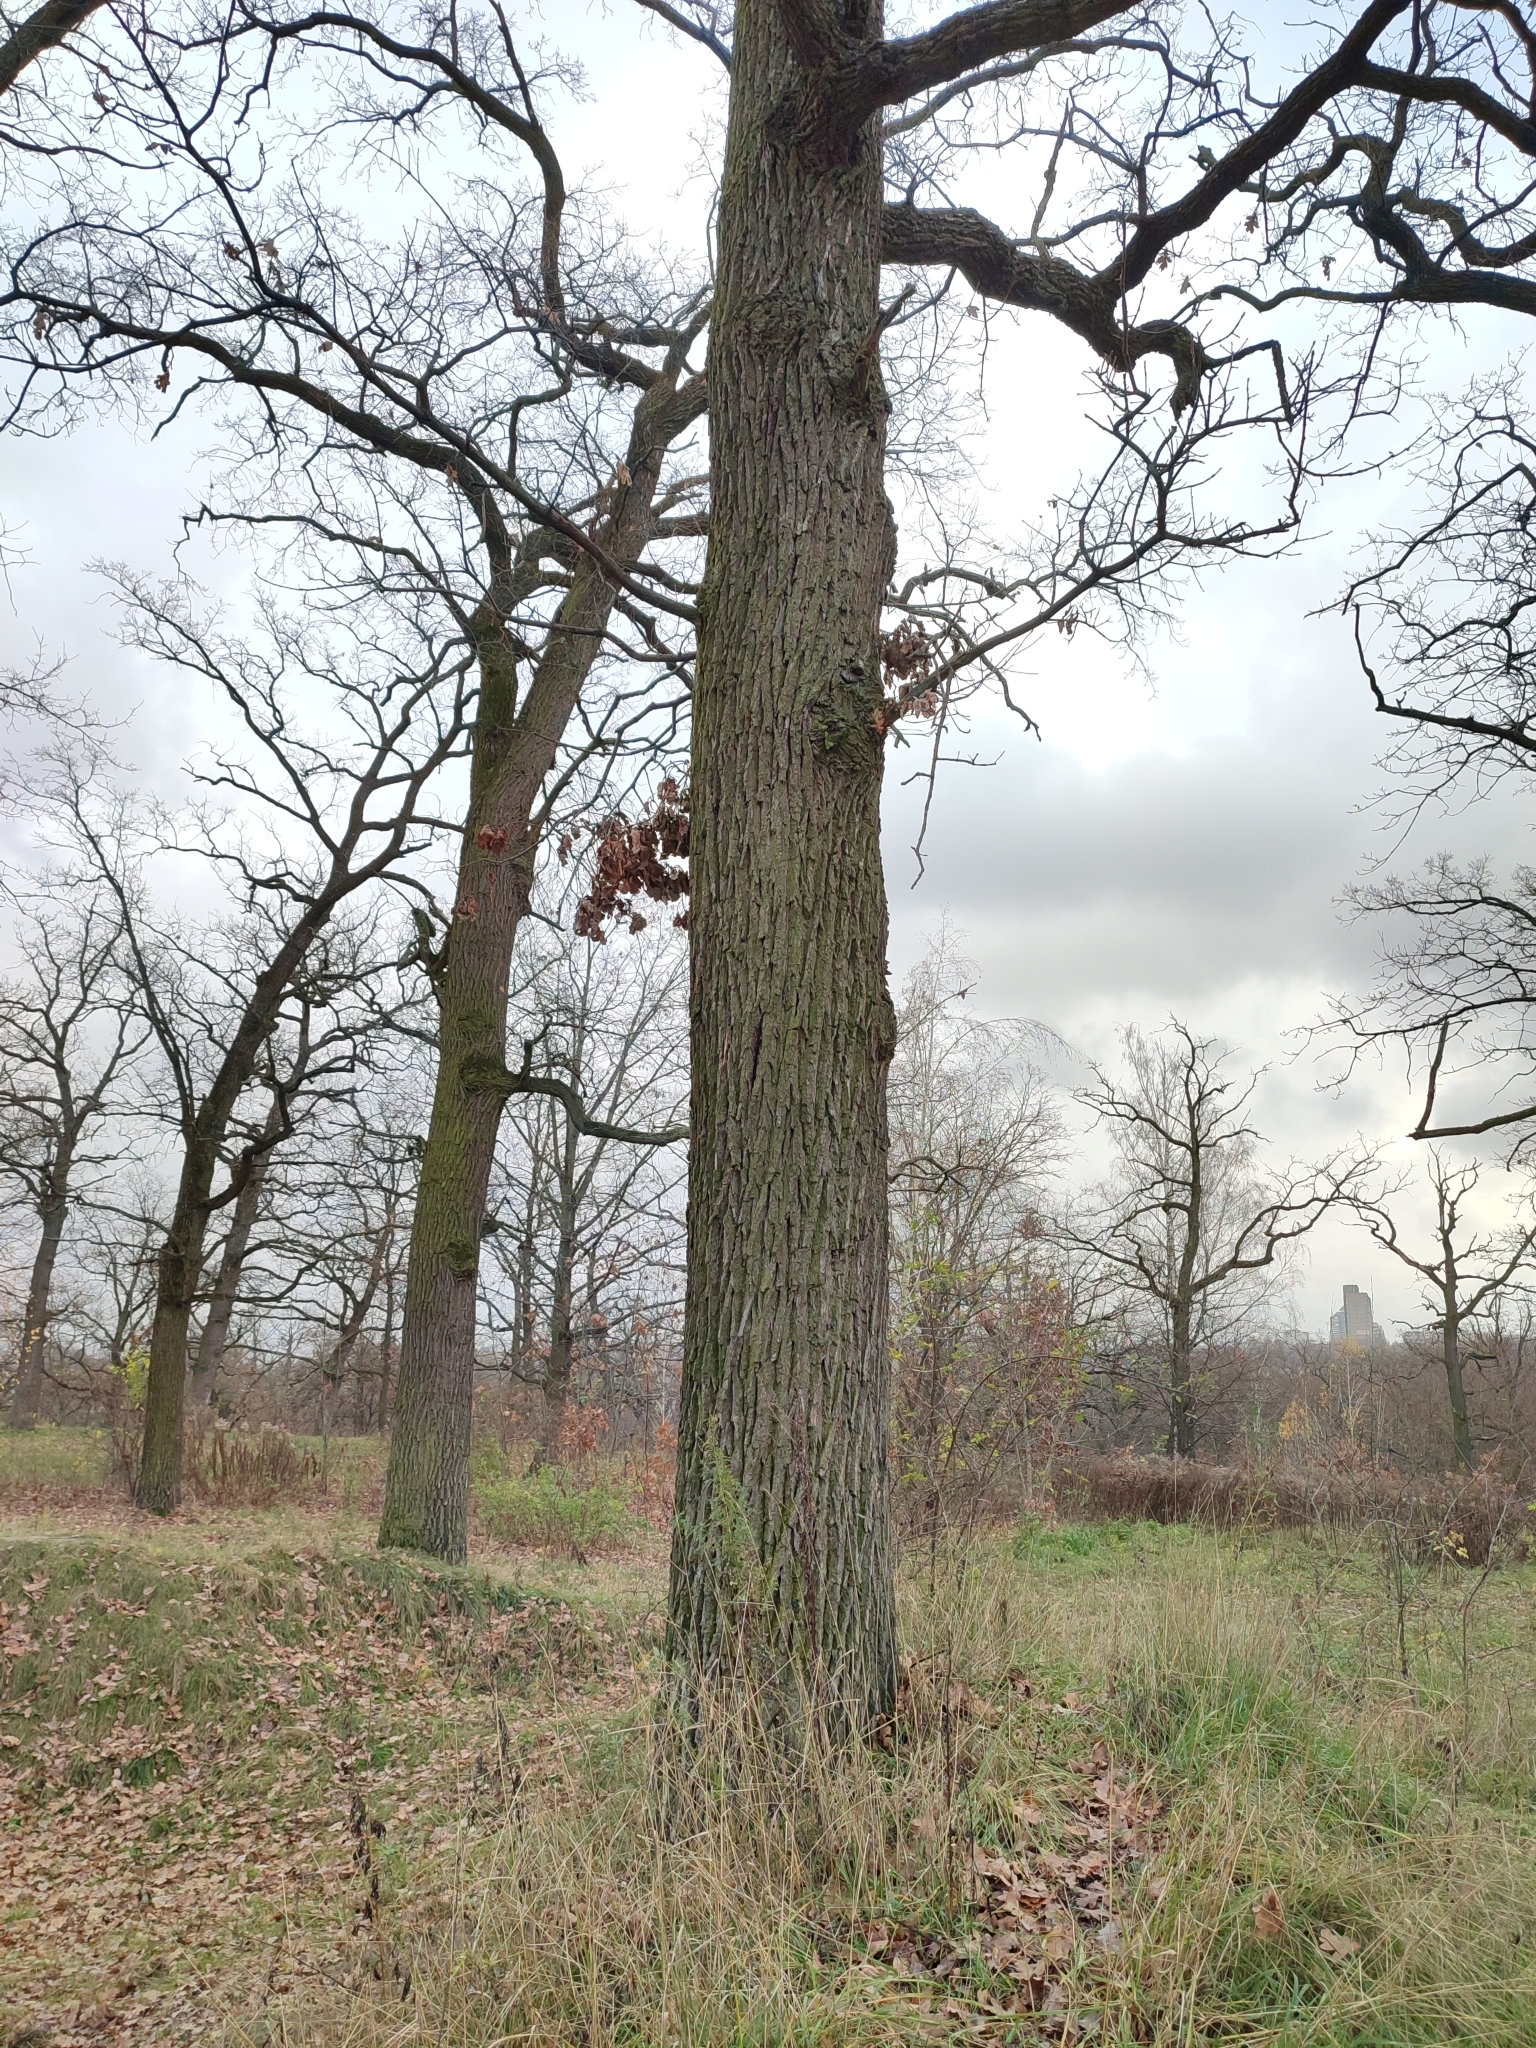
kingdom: Plantae
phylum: Tracheophyta
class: Magnoliopsida
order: Fagales
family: Fagaceae
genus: Quercus
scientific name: Quercus robur
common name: Pedunculate oak
